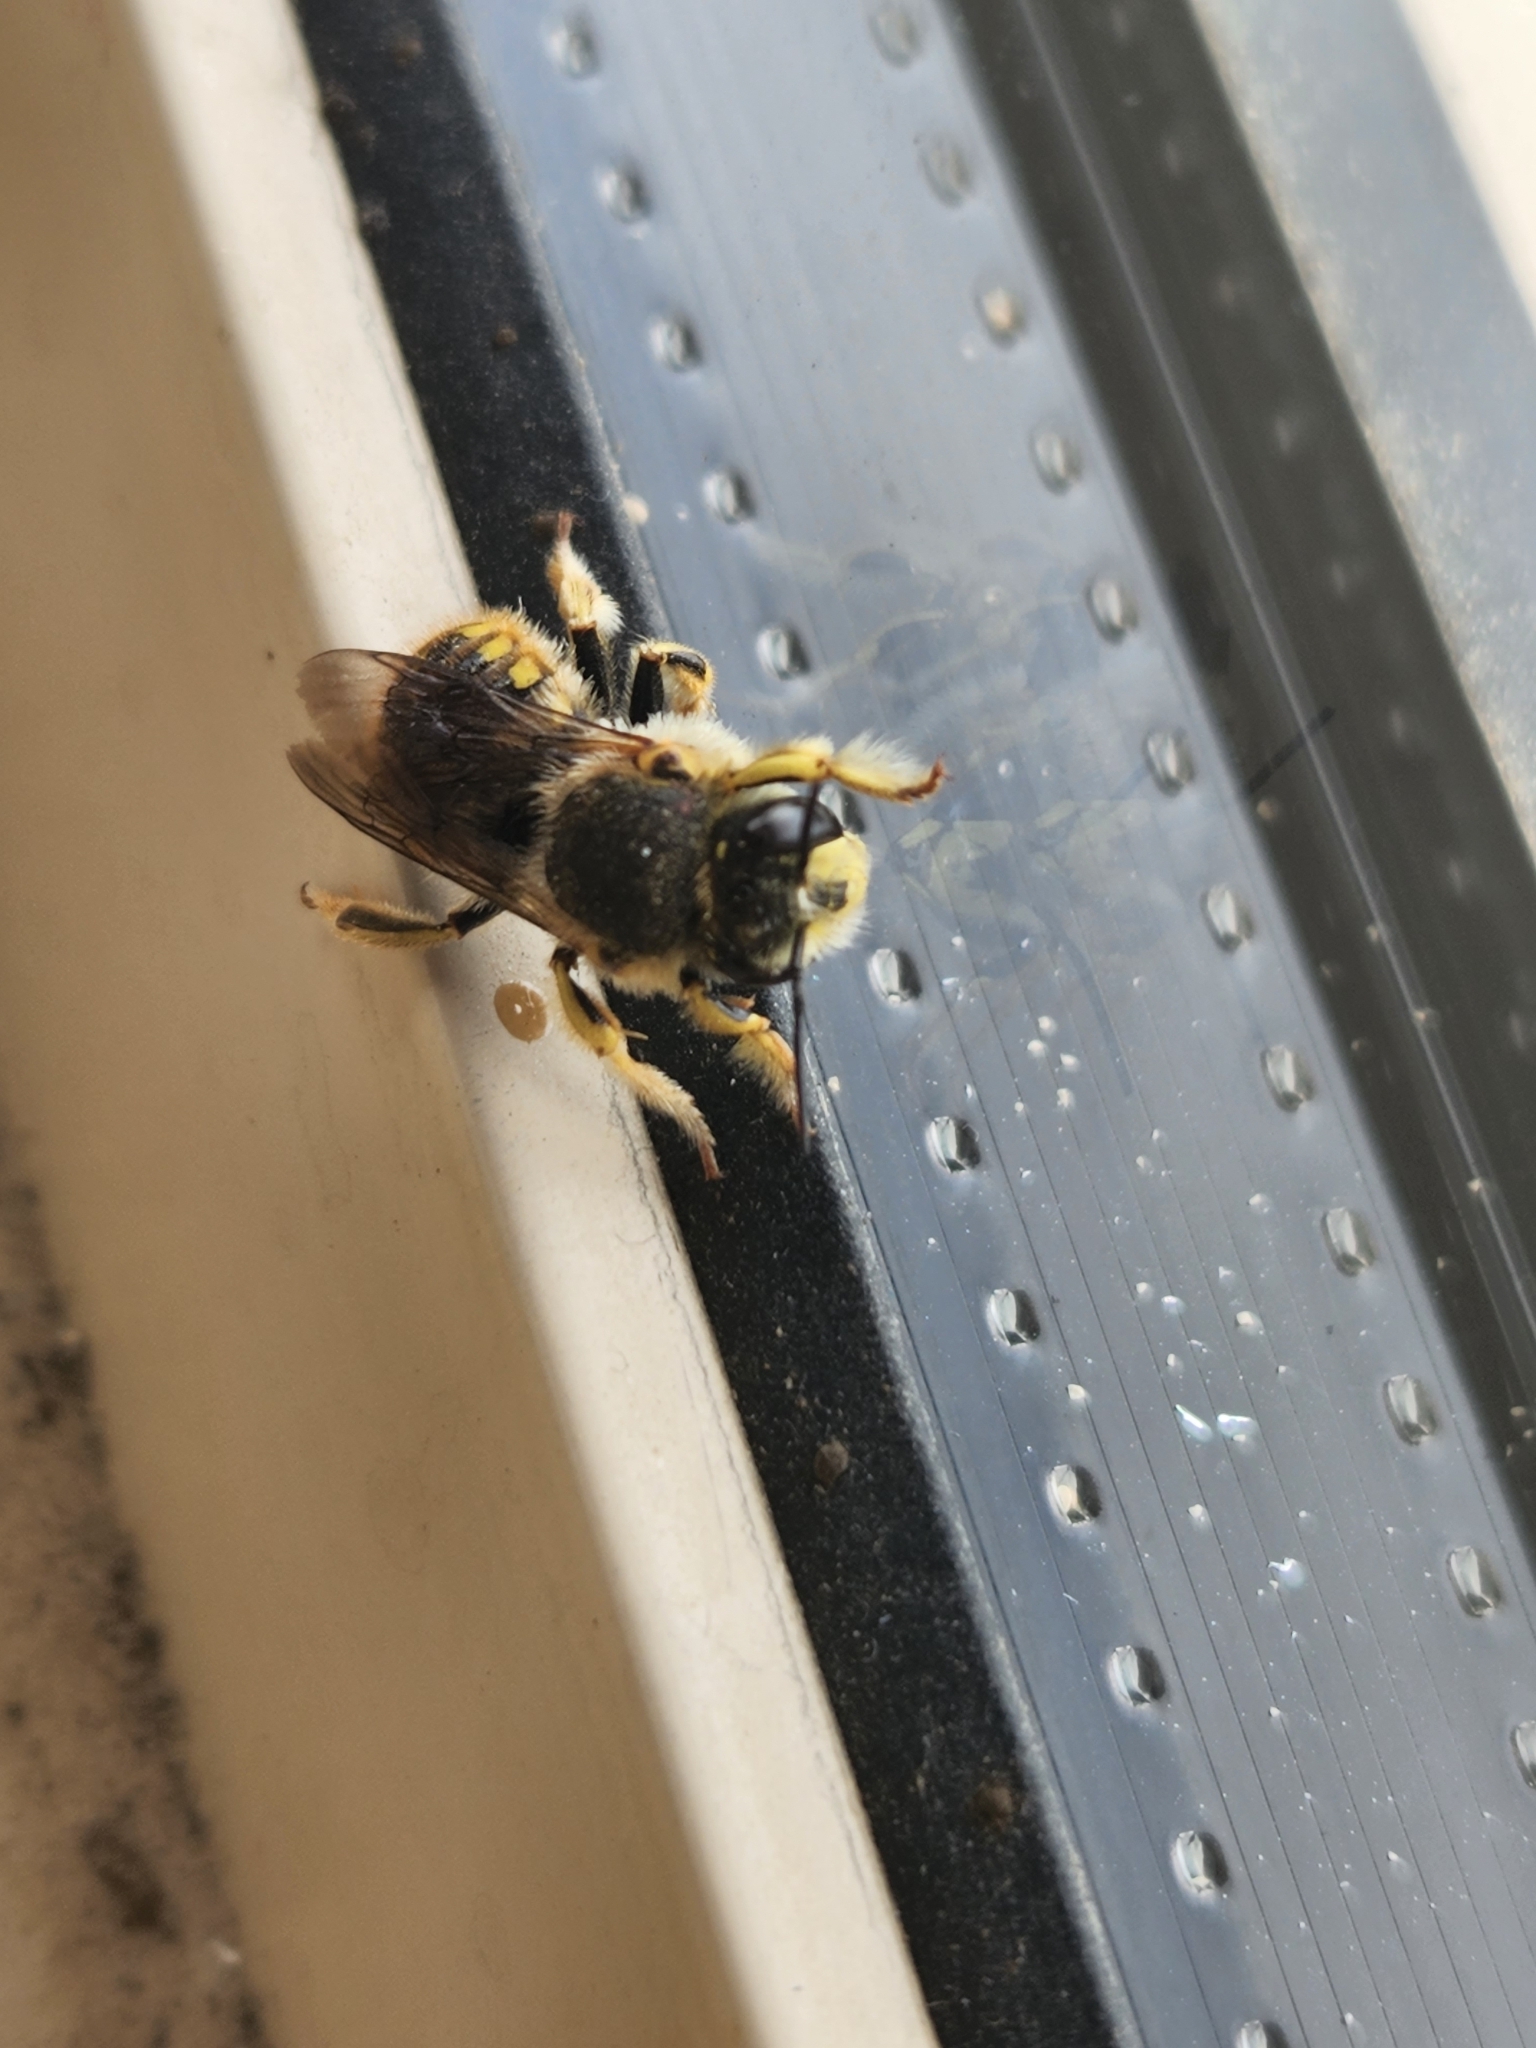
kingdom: Animalia
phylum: Arthropoda
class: Insecta
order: Hymenoptera
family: Megachilidae
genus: Anthidium
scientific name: Anthidium manicatum
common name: Wool carder bee
